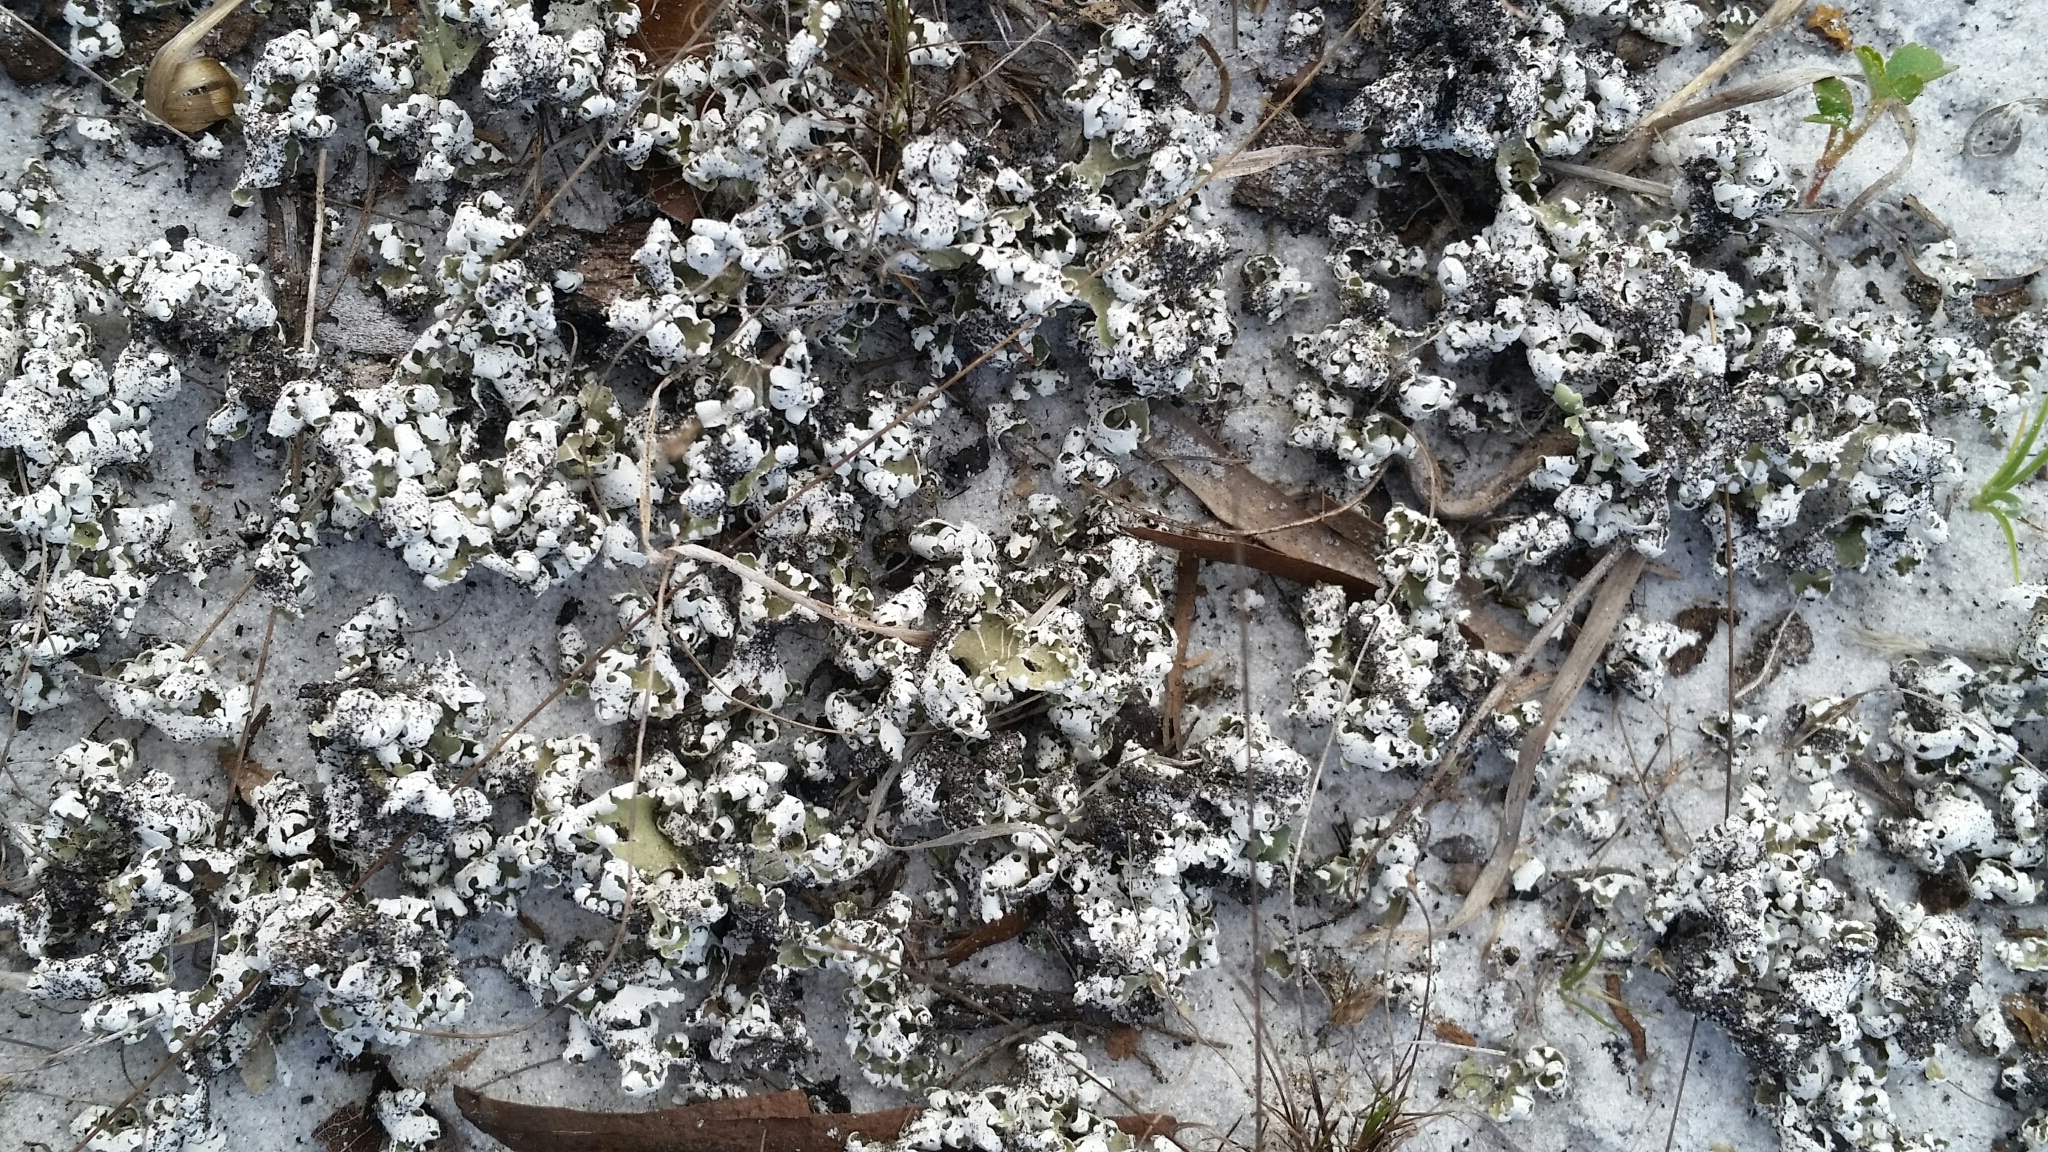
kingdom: Fungi
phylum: Ascomycota
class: Lecanoromycetes
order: Lecanorales
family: Cladoniaceae
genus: Cladonia
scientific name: Cladonia prostrata
